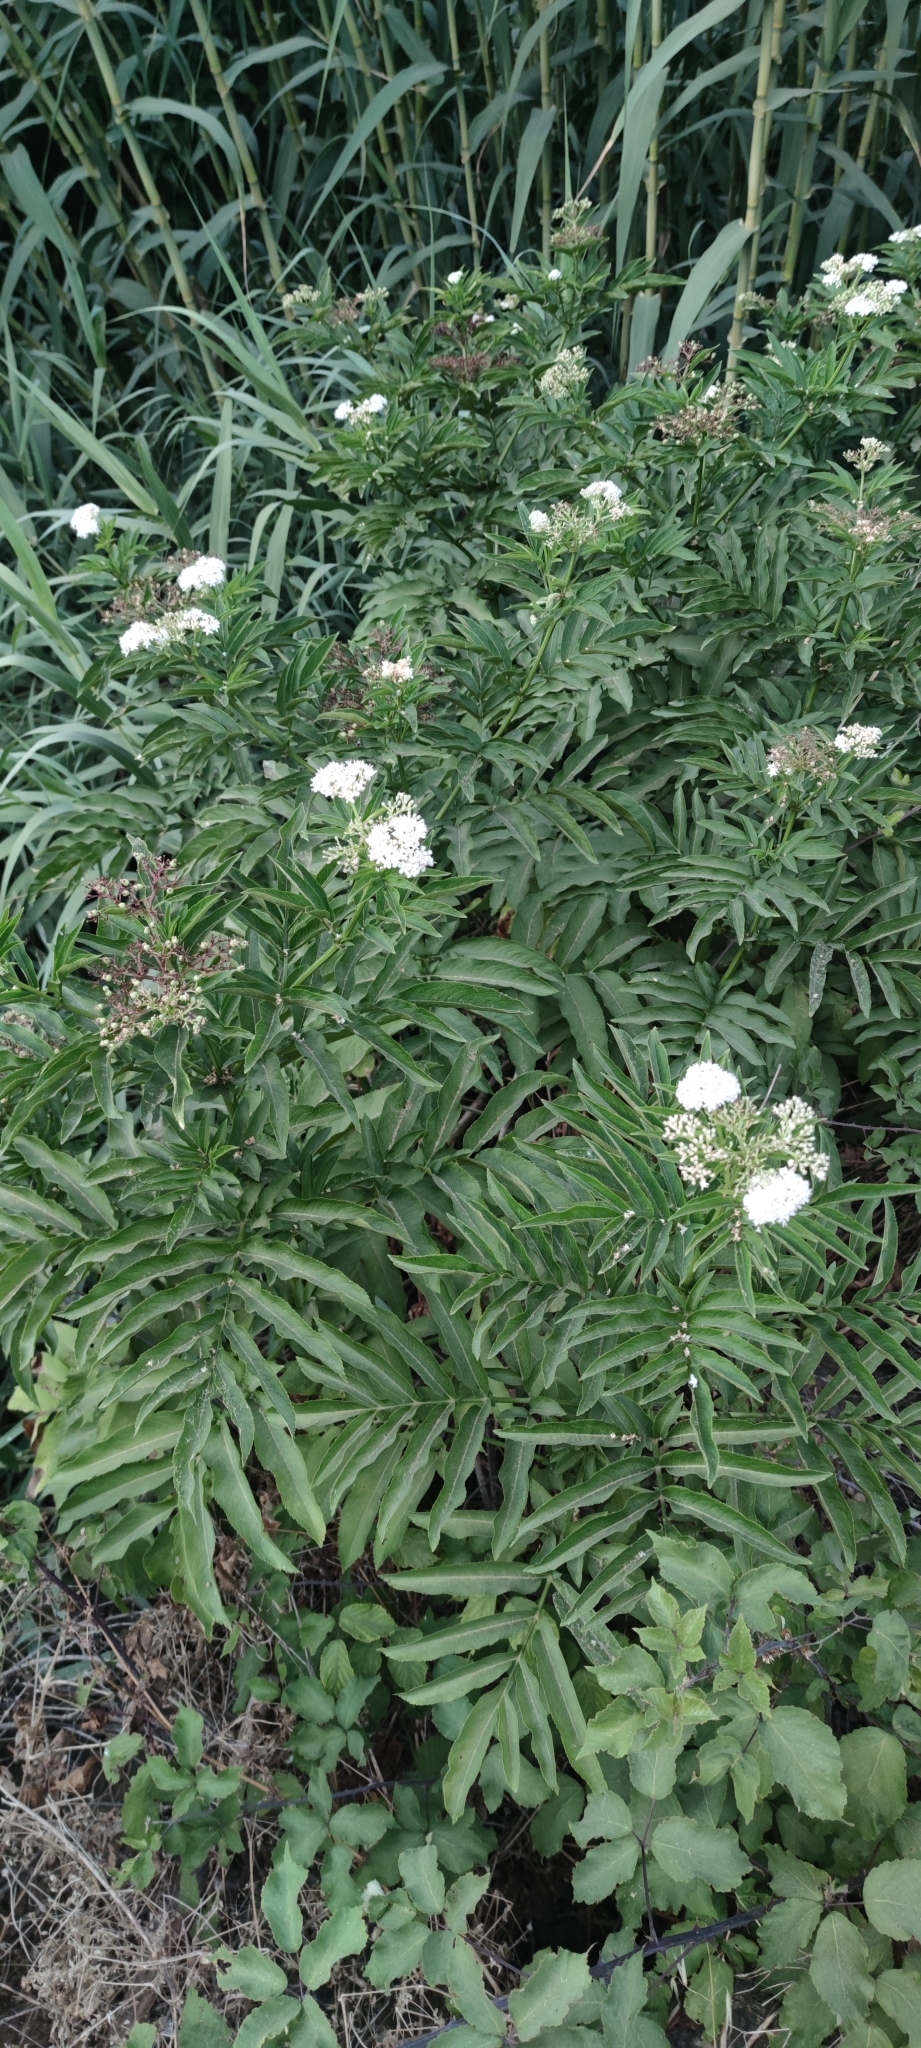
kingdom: Plantae
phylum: Tracheophyta
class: Magnoliopsida
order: Dipsacales
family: Viburnaceae
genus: Sambucus
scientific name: Sambucus ebulus
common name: Dwarf elder
